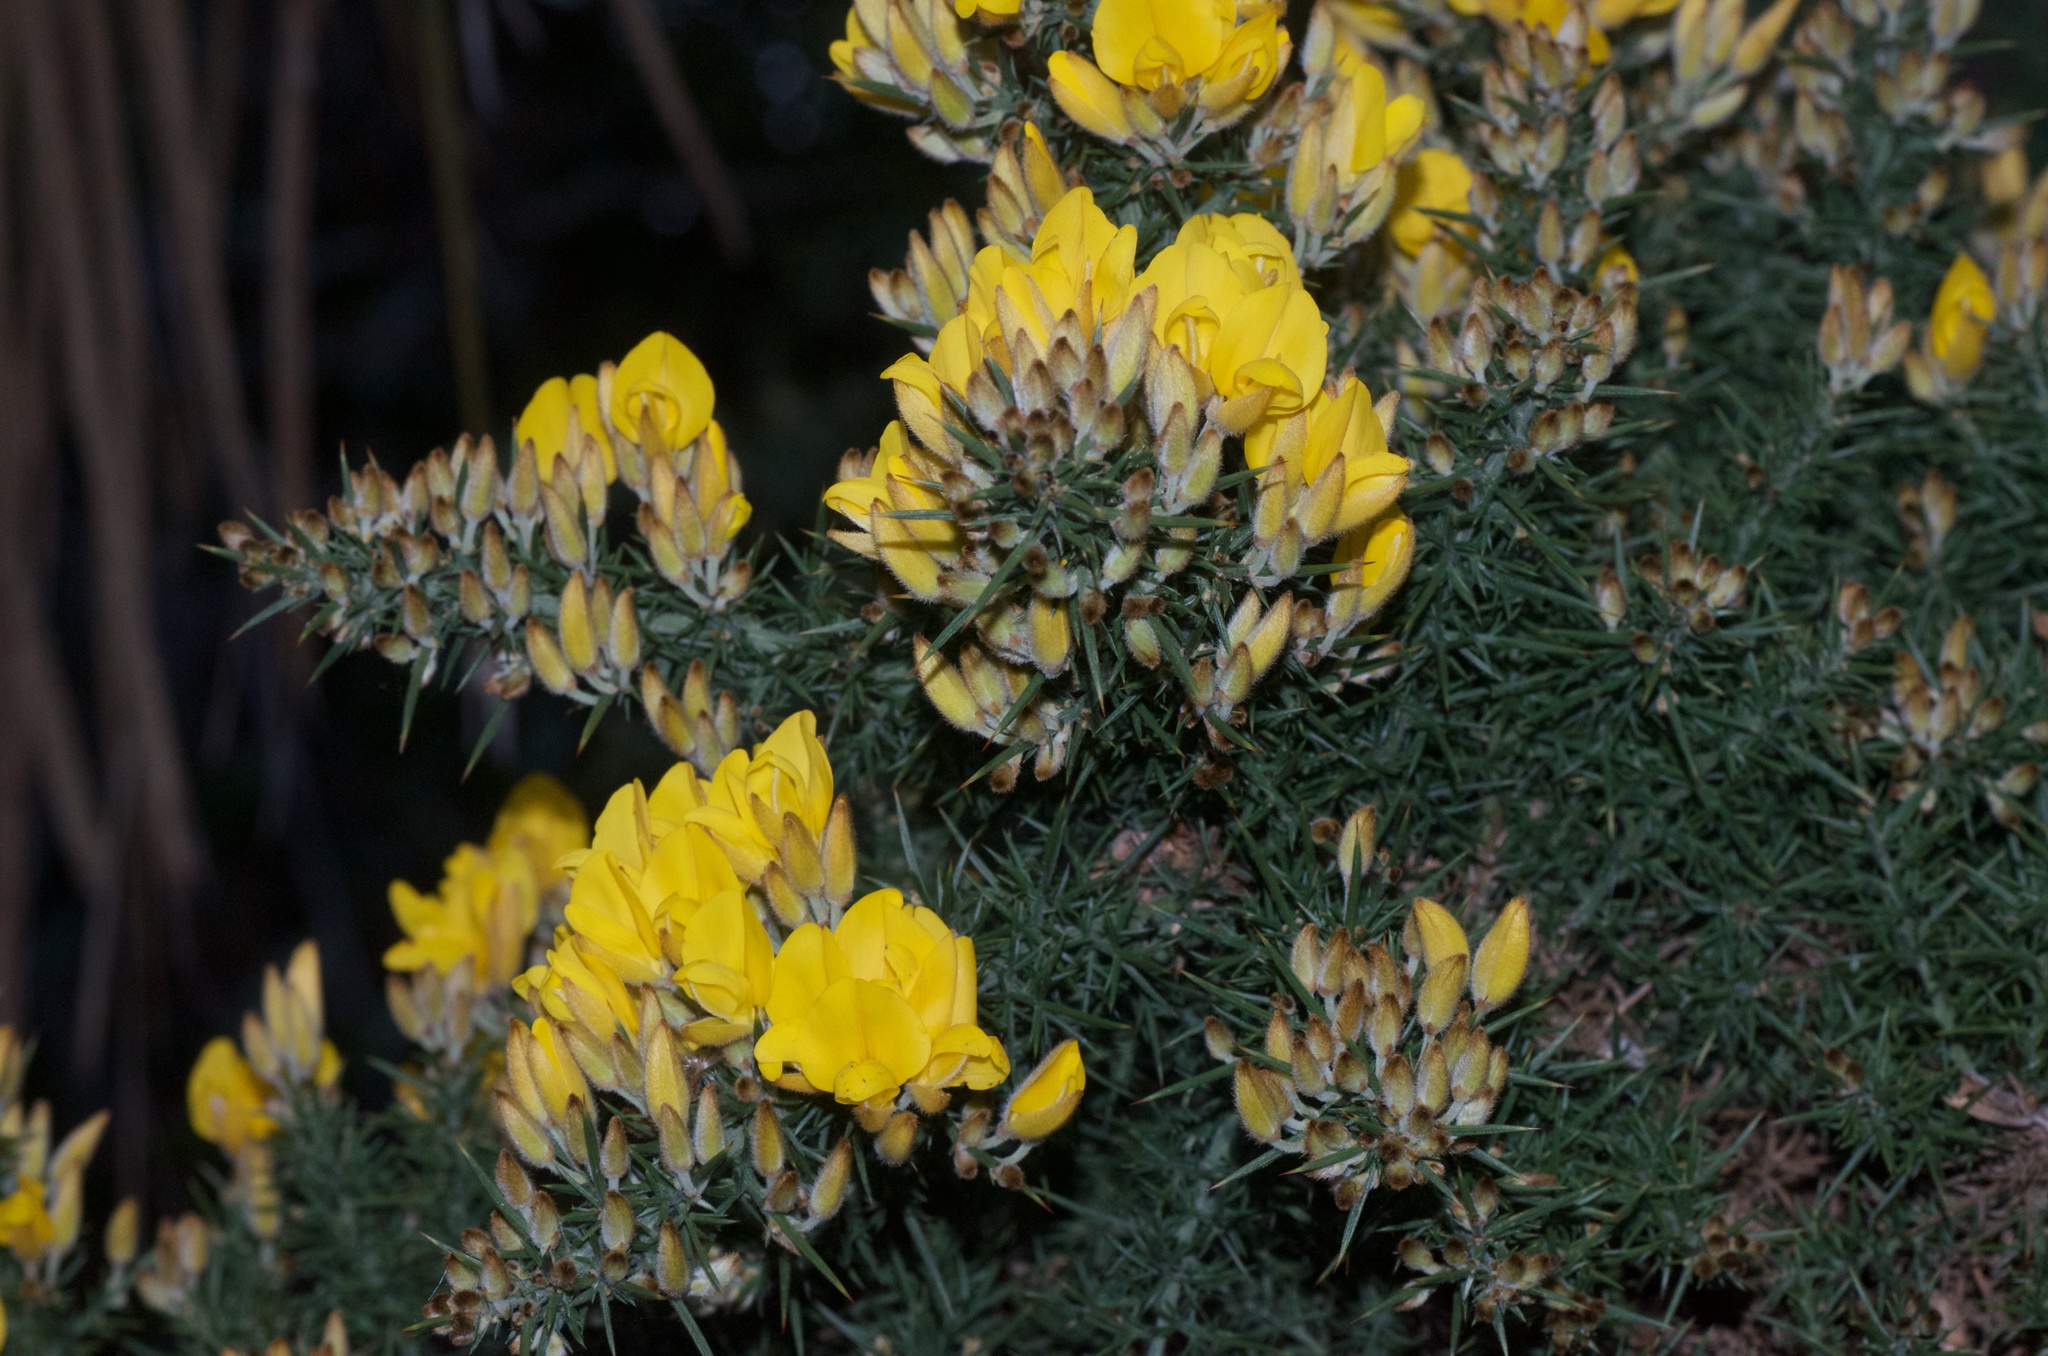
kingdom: Plantae
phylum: Tracheophyta
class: Magnoliopsida
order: Fabales
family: Fabaceae
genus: Ulex
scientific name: Ulex europaeus
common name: Common gorse
